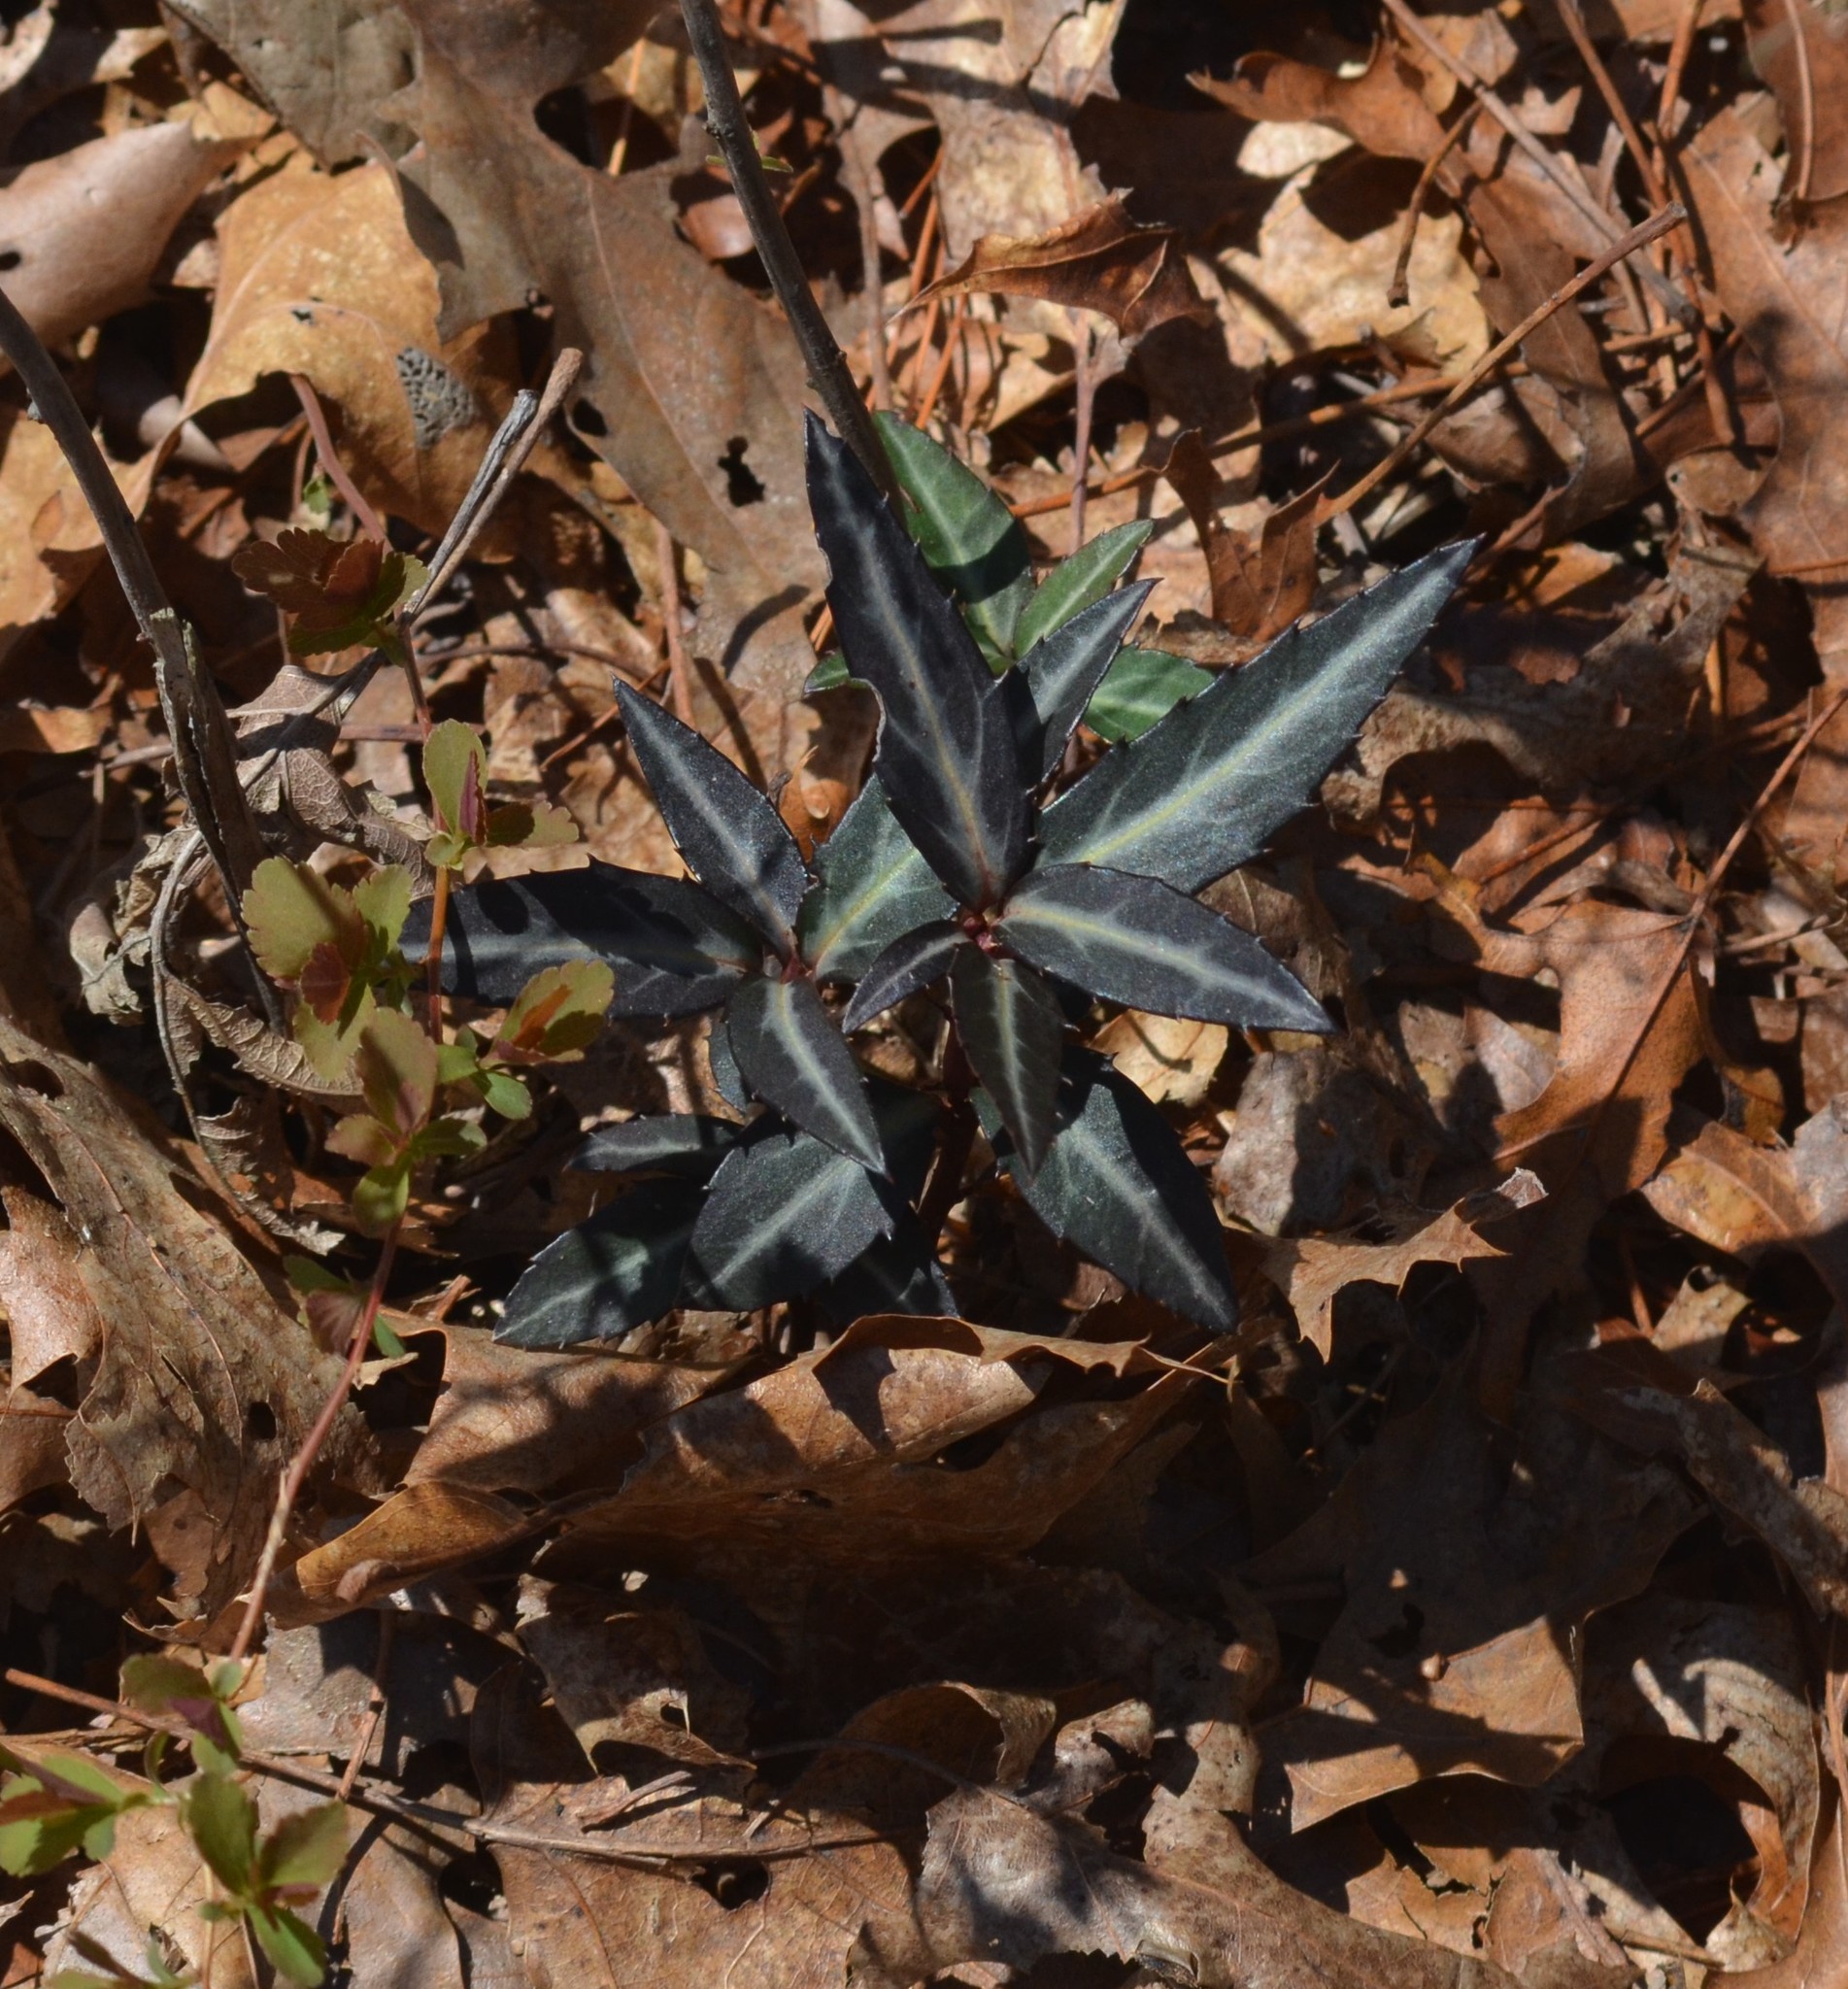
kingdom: Plantae
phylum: Tracheophyta
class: Magnoliopsida
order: Ericales
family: Ericaceae
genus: Chimaphila
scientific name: Chimaphila maculata
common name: Spotted pipsissewa
